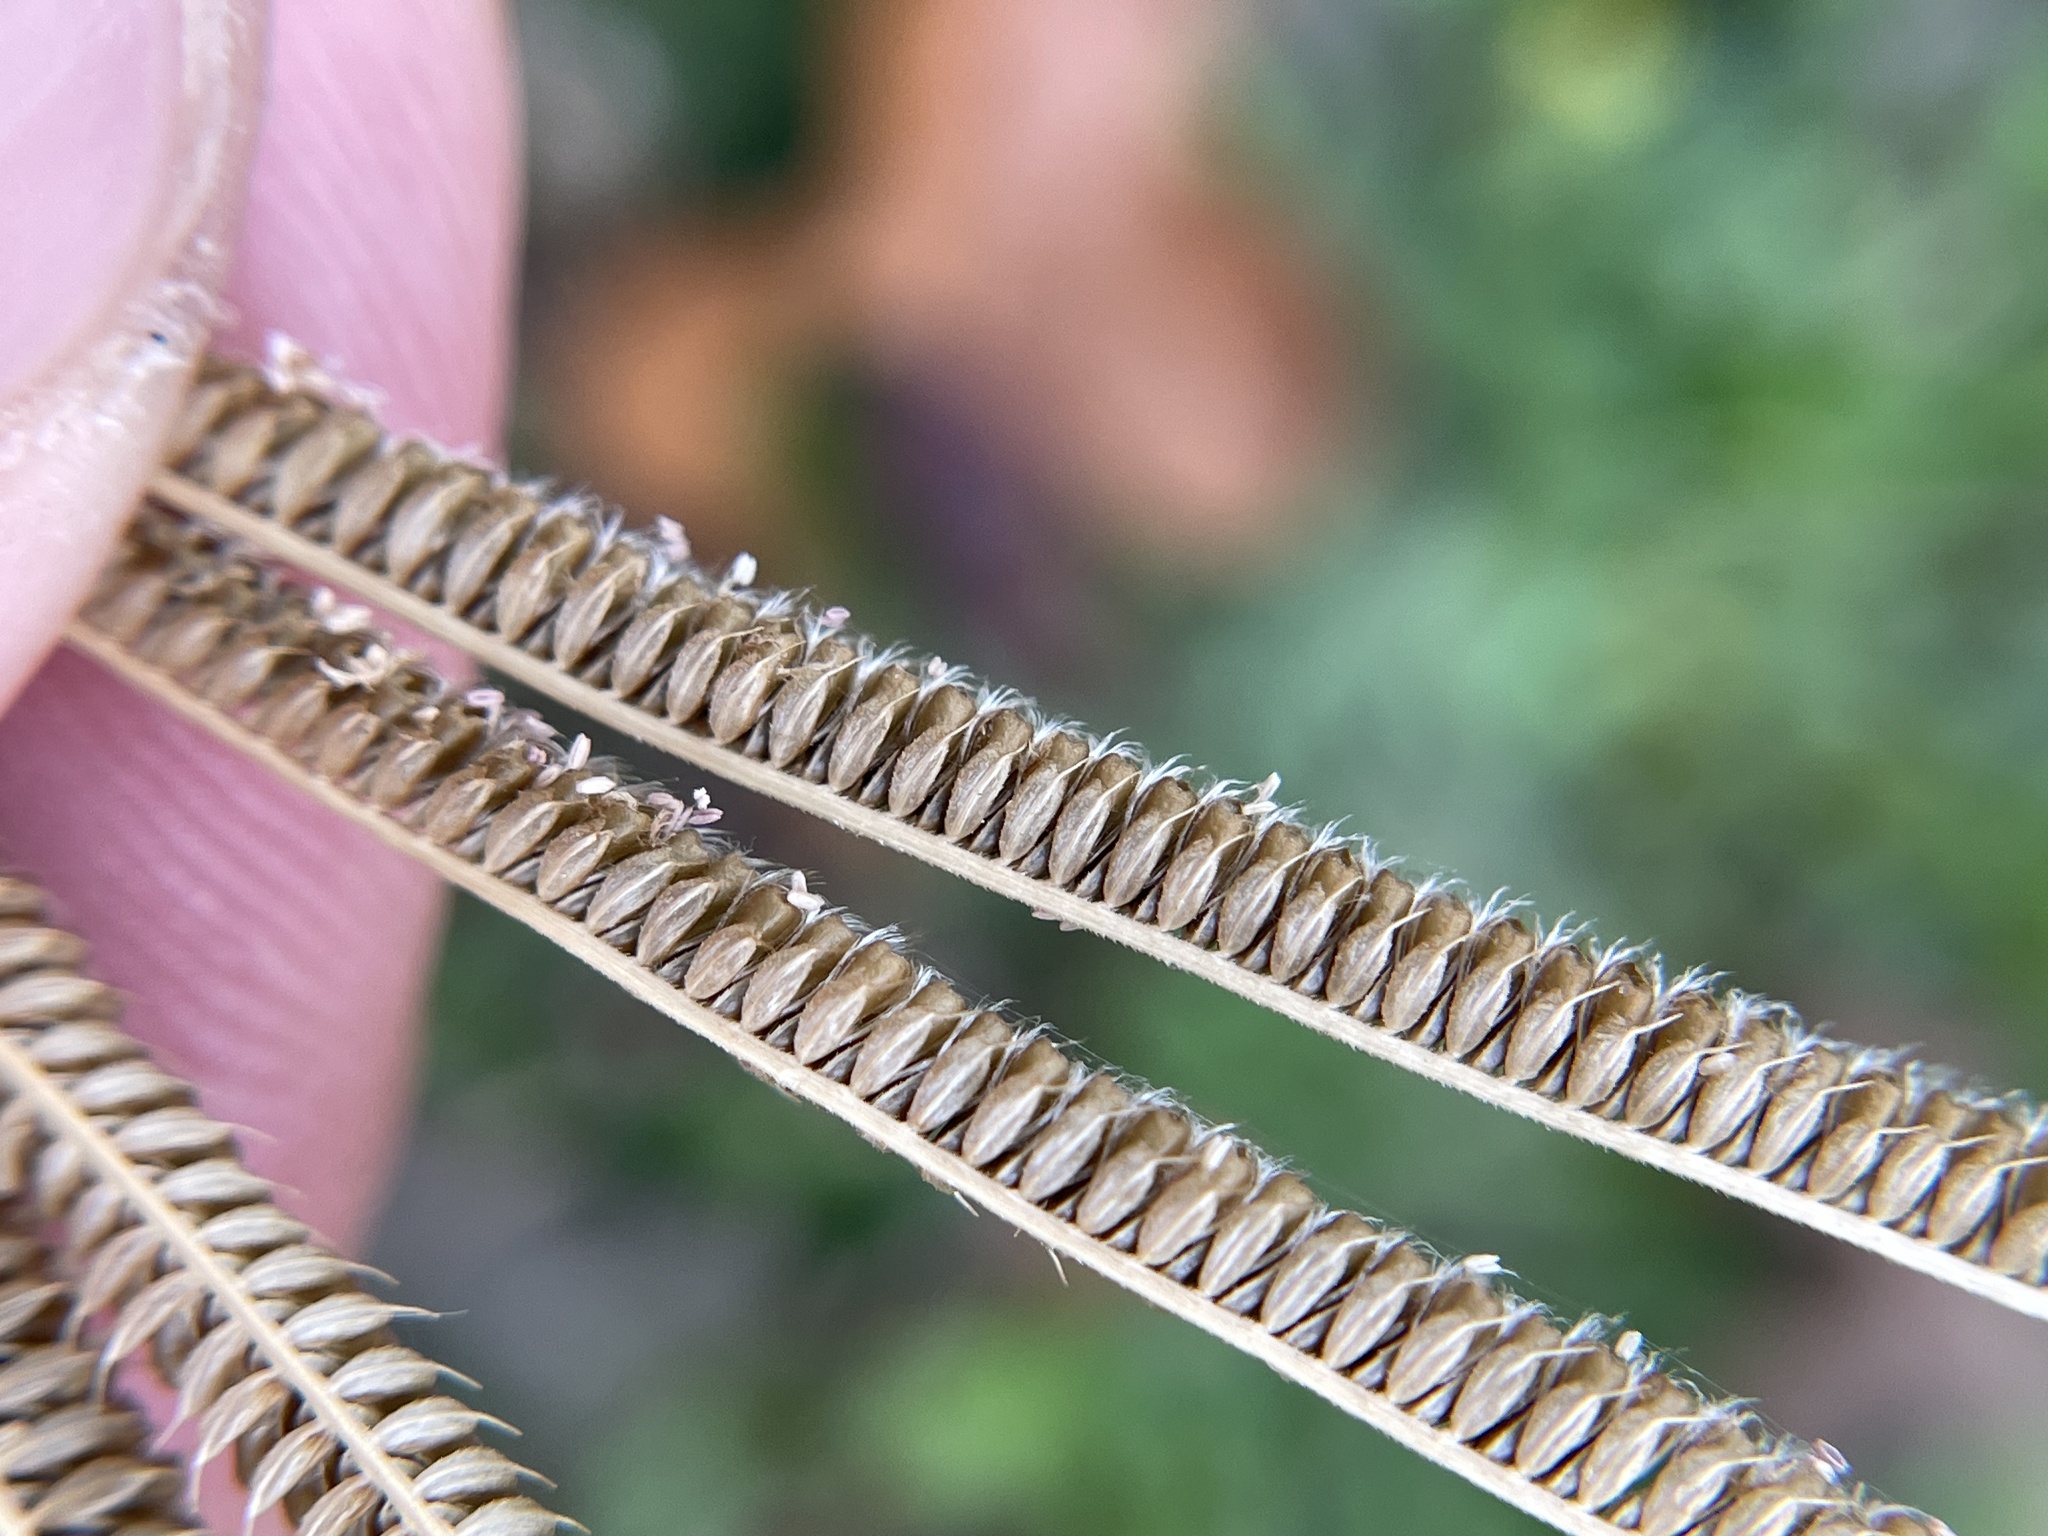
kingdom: Plantae
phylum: Tracheophyta
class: Liliopsida
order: Poales
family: Poaceae
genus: Eustachys
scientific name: Eustachys caribaea
